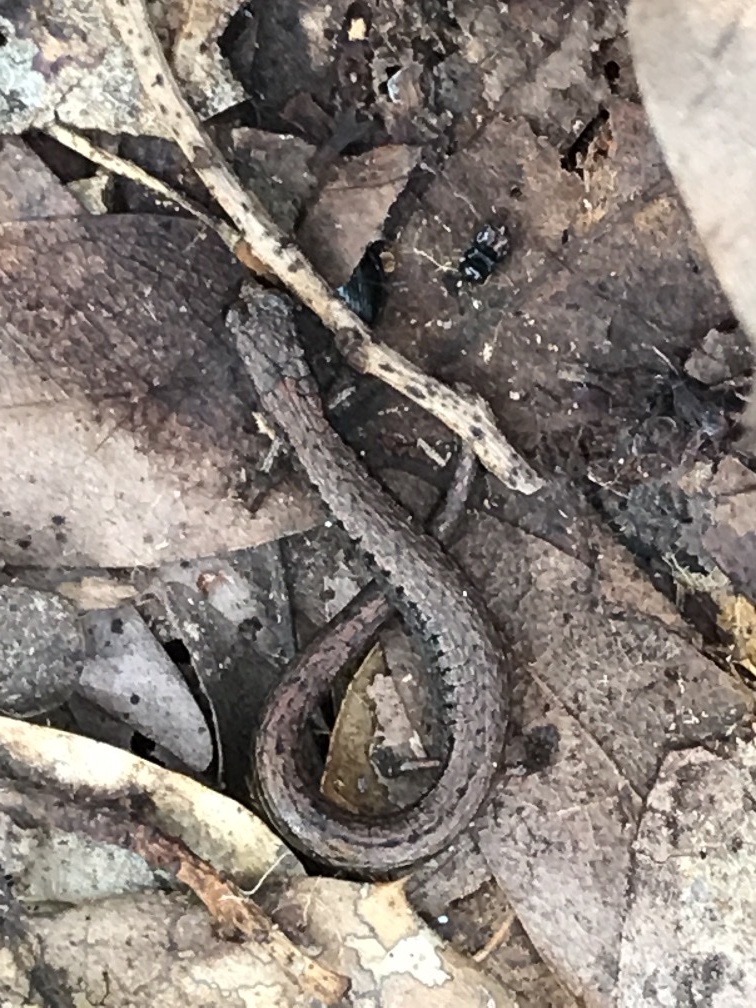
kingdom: Animalia
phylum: Chordata
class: Amphibia
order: Caudata
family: Plethodontidae
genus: Batrachoseps
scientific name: Batrachoseps attenuatus
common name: California slender salamander
